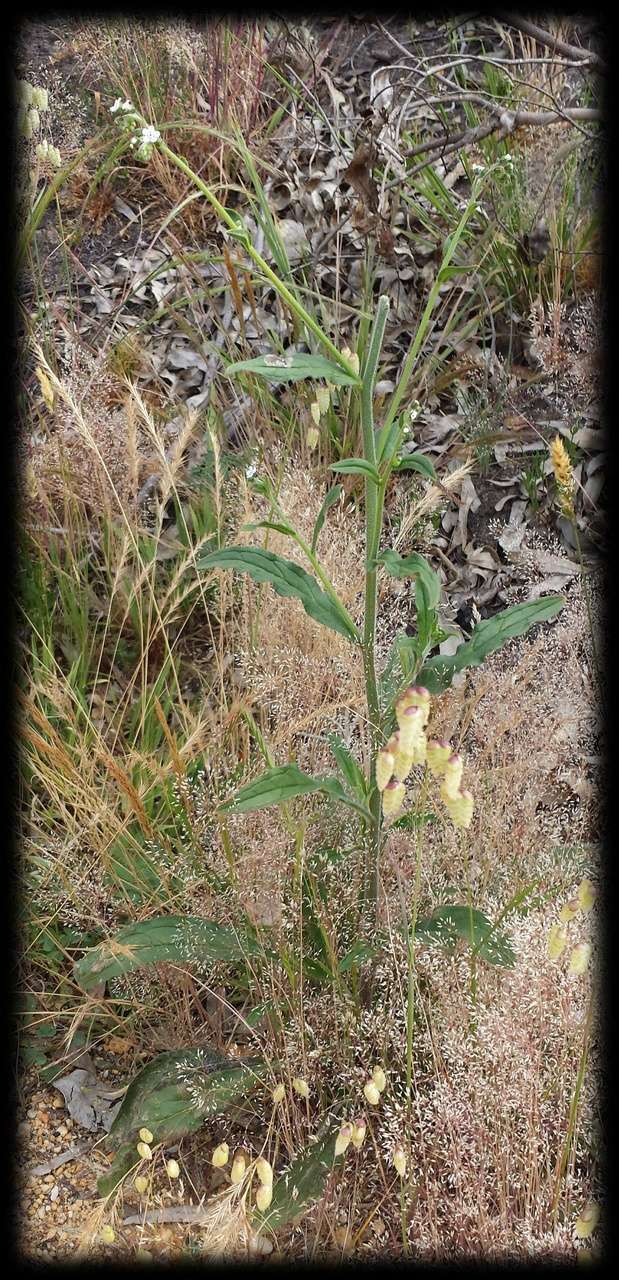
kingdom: Plantae
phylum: Tracheophyta
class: Magnoliopsida
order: Boraginales
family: Boraginaceae
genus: Hackelia
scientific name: Hackelia suaveolens
